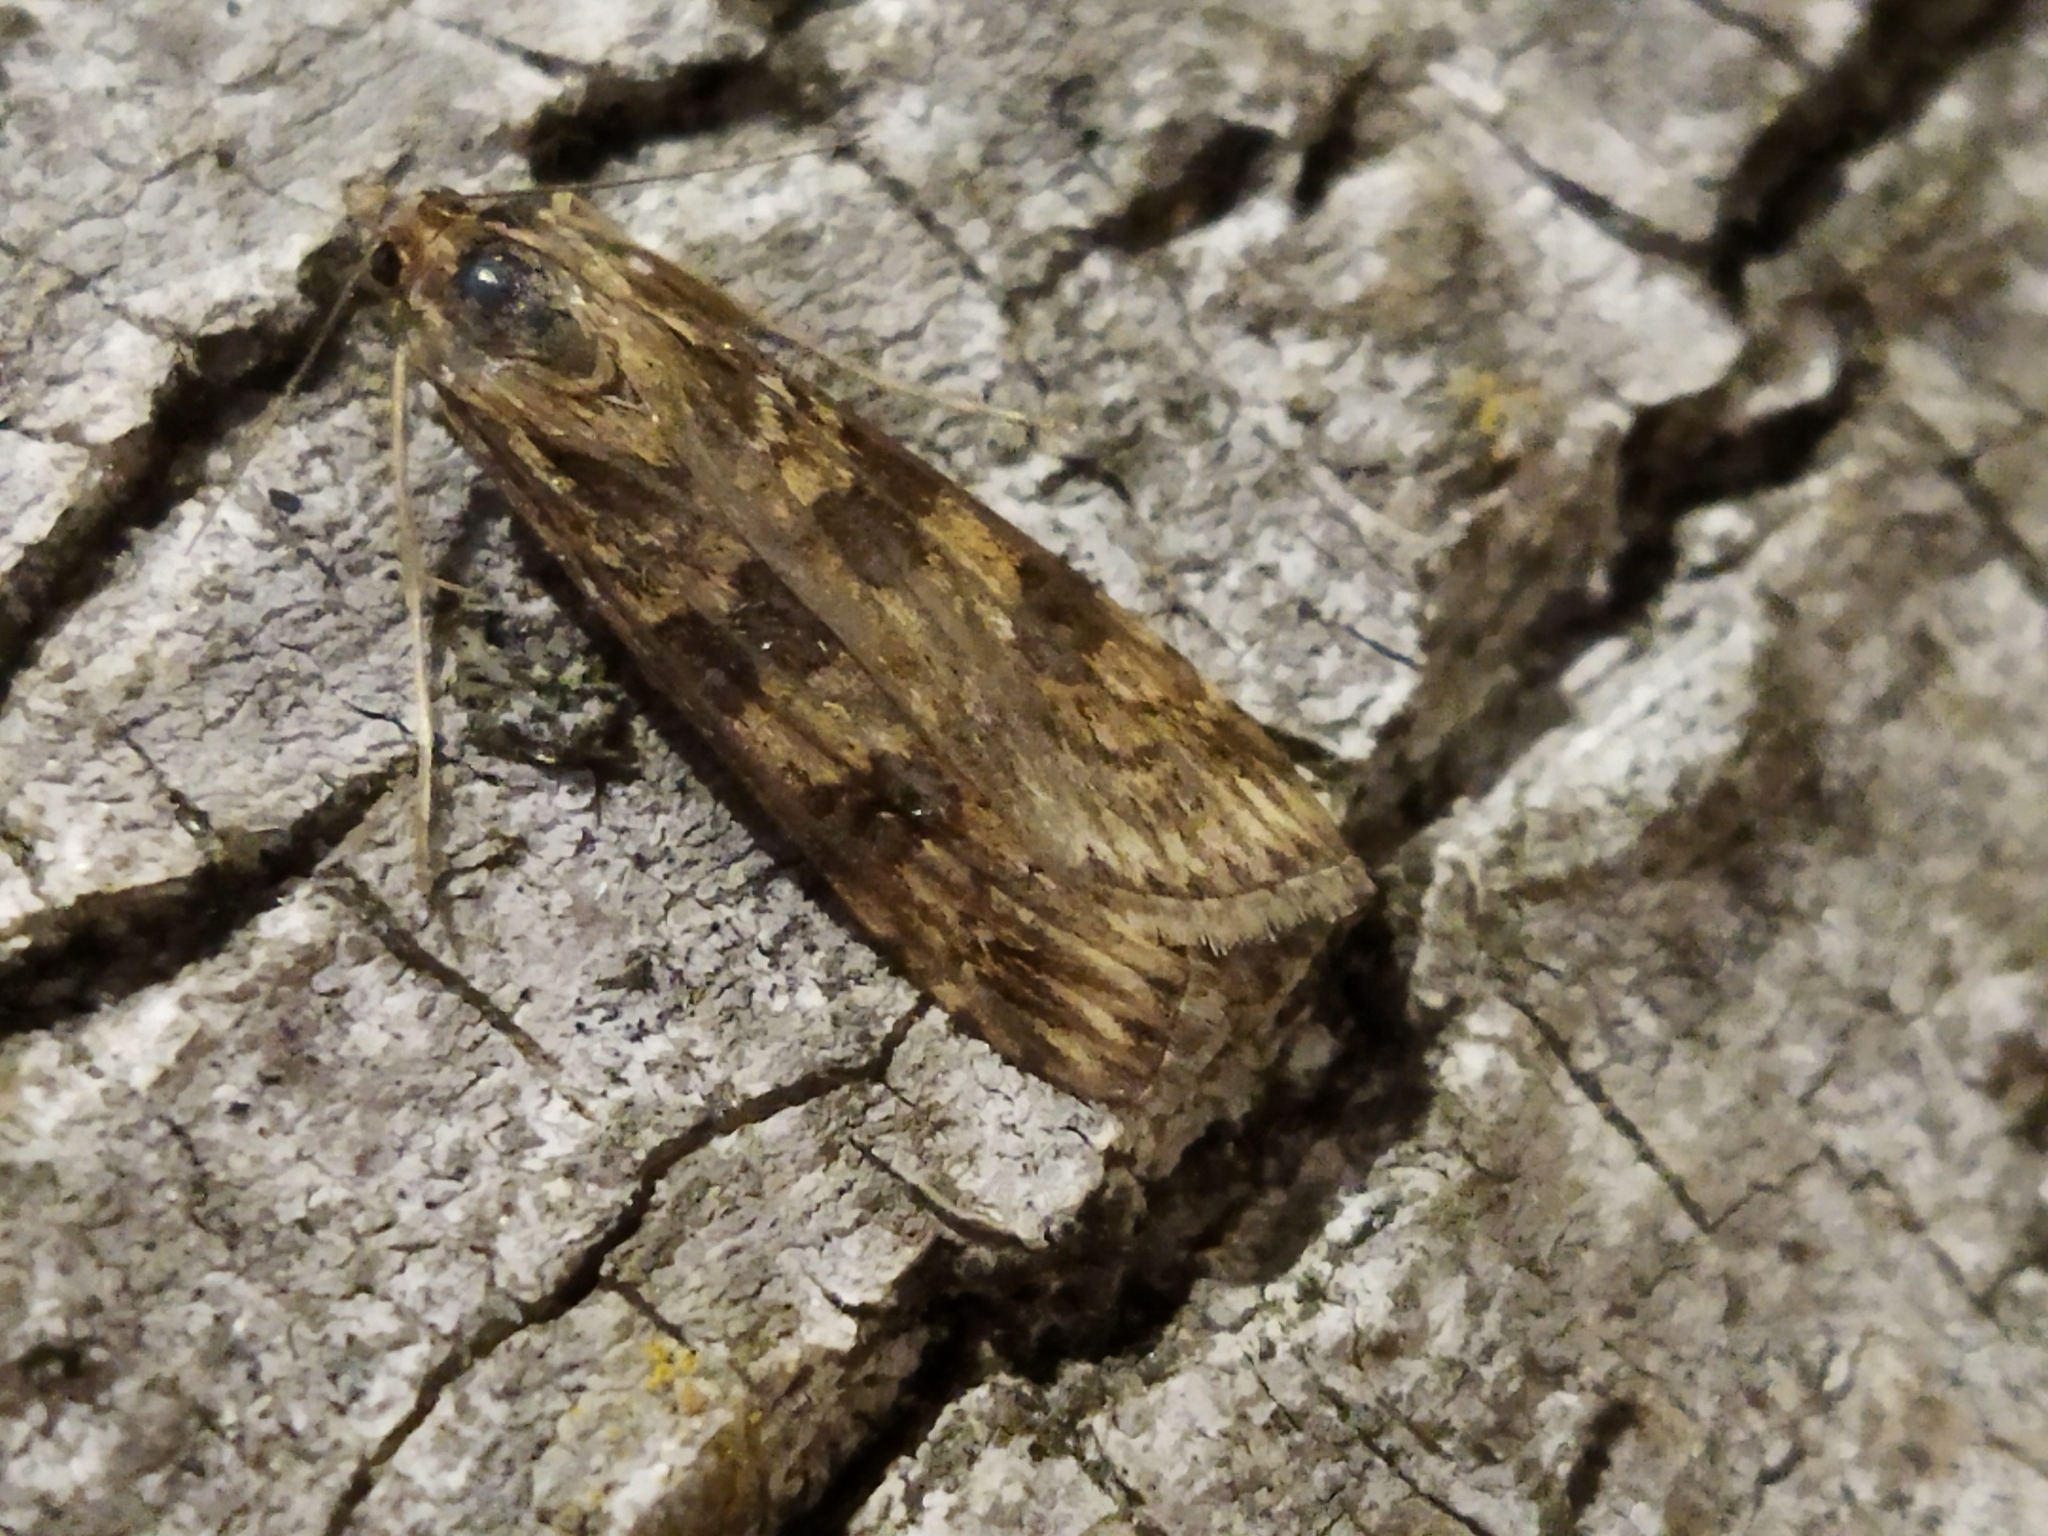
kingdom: Animalia
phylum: Arthropoda
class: Insecta
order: Lepidoptera
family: Crambidae
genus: Nomophila
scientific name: Nomophila noctuella
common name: Rush veneer
